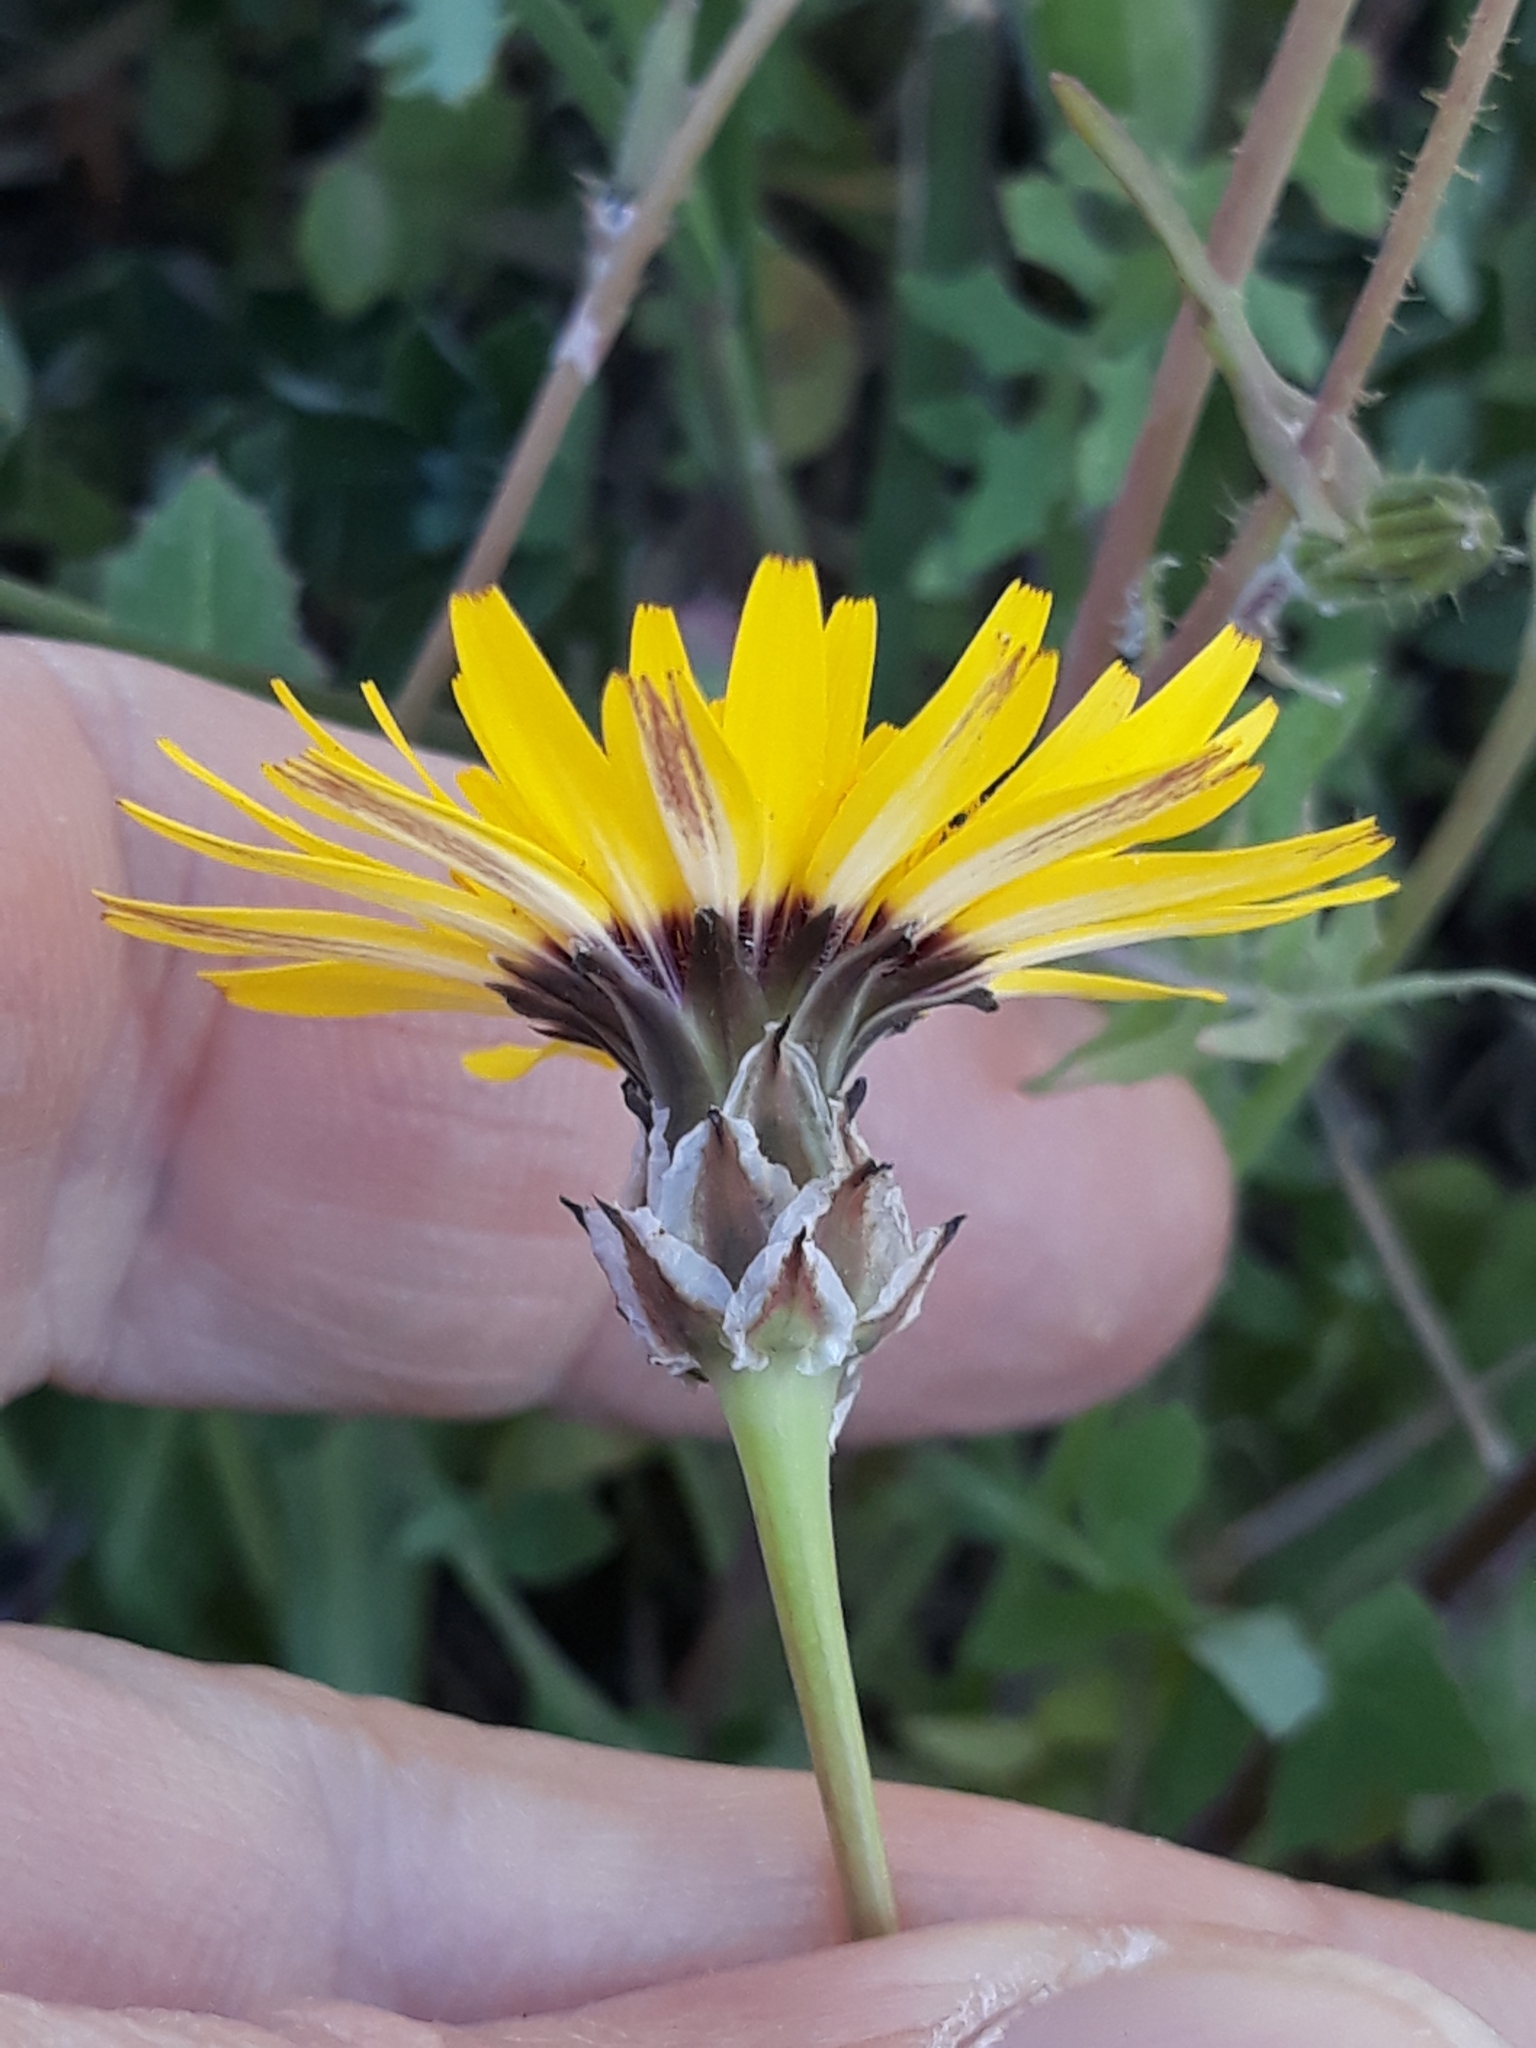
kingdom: Plantae
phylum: Tracheophyta
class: Magnoliopsida
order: Asterales
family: Asteraceae
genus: Reichardia
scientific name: Reichardia tingitana
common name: Reichardia
